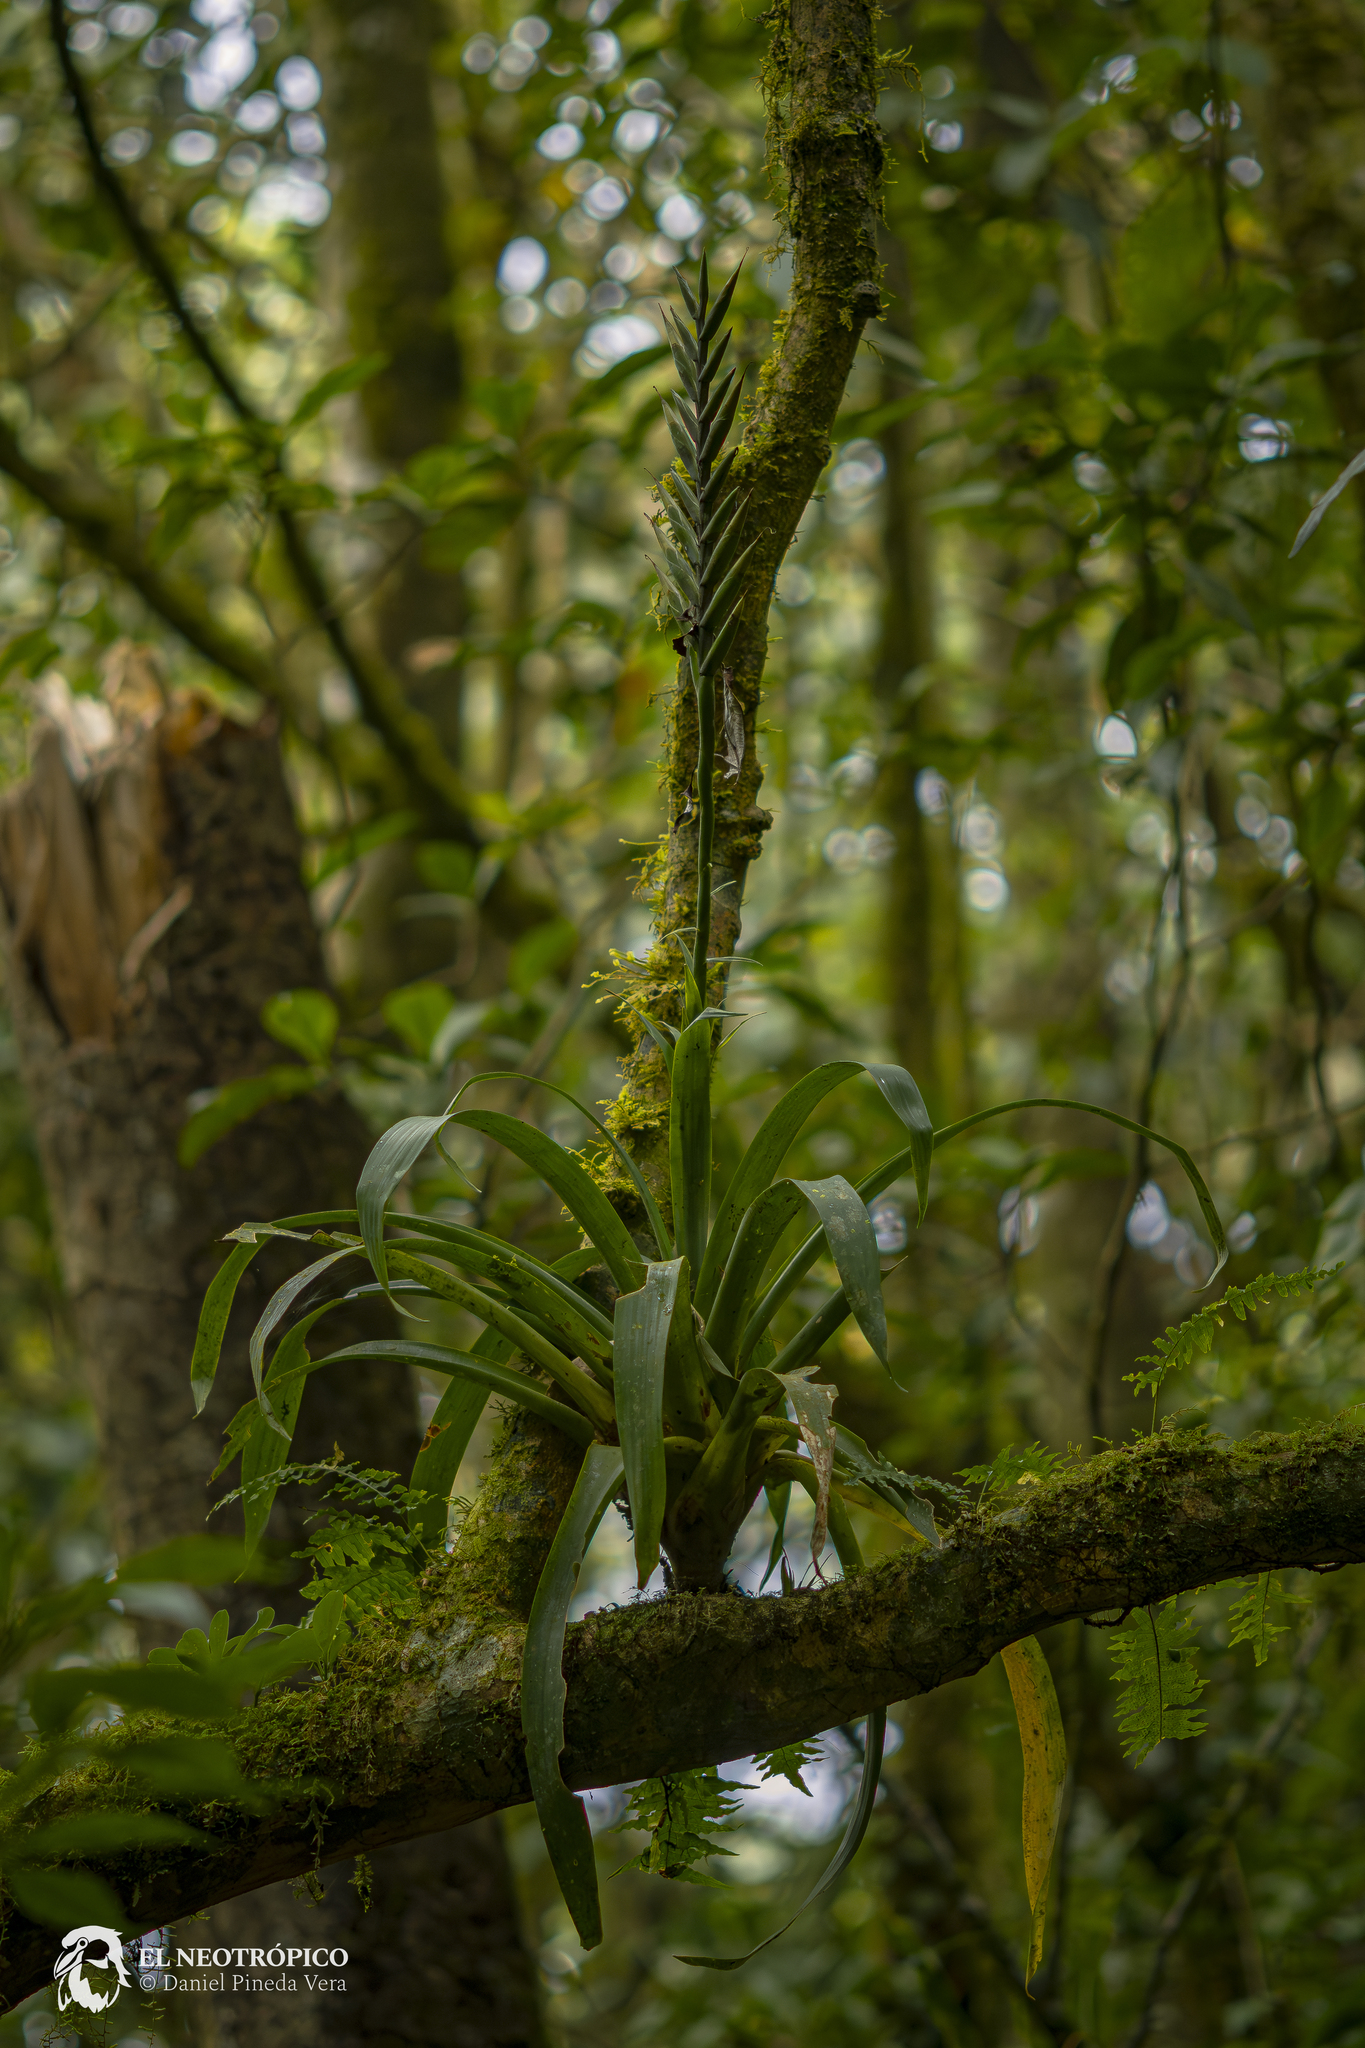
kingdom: Plantae
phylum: Tracheophyta
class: Liliopsida
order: Poales
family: Bromeliaceae
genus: Pseudalcantarea
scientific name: Pseudalcantarea viridiflora
